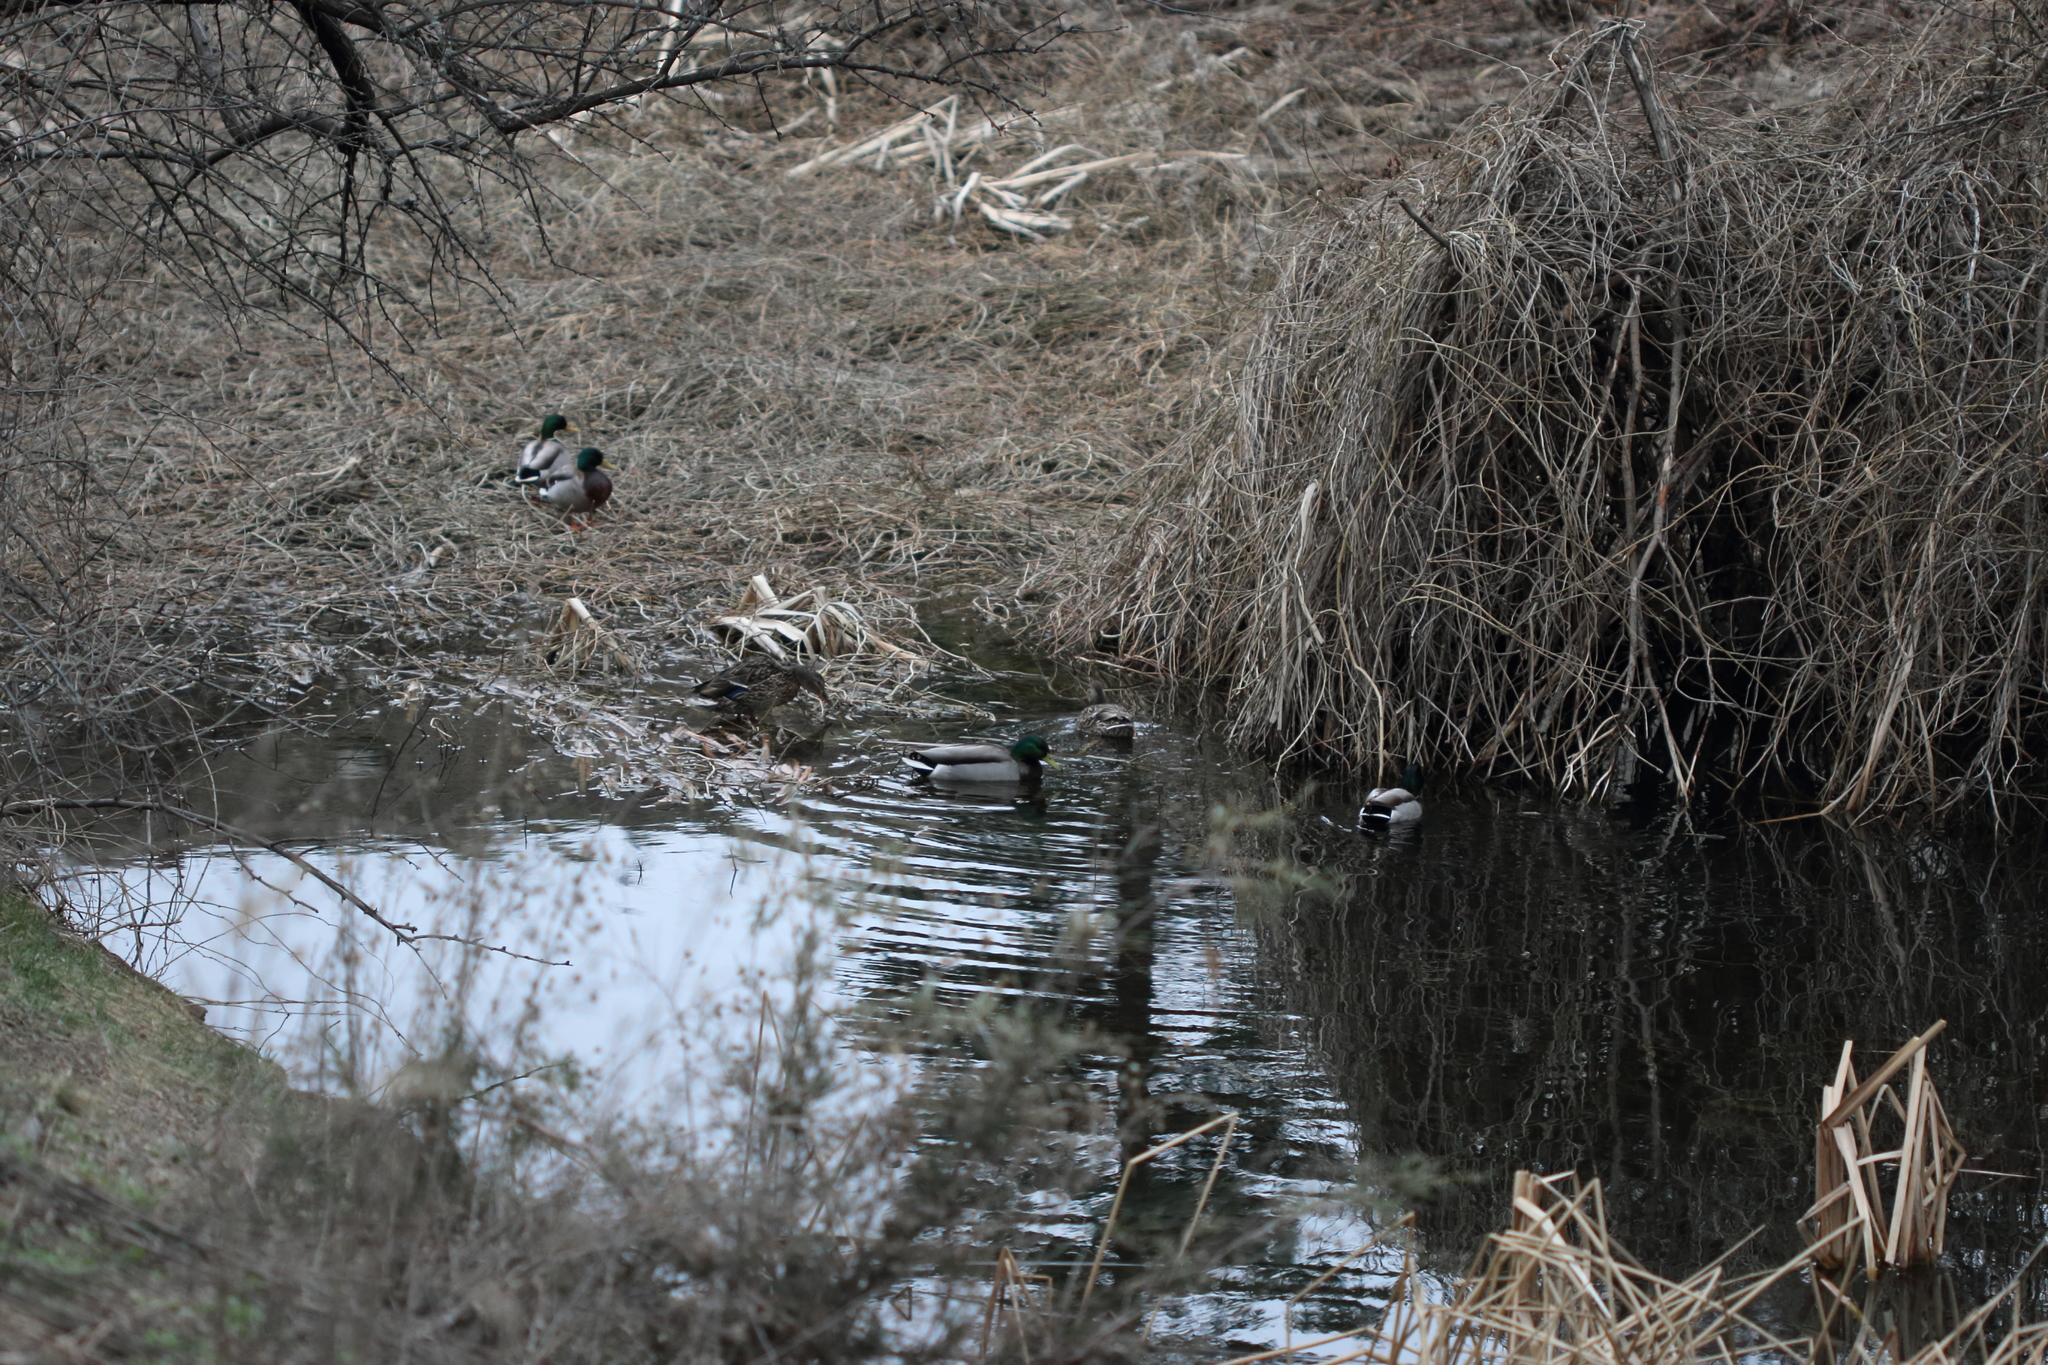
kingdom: Animalia
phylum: Chordata
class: Aves
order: Anseriformes
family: Anatidae
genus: Anas
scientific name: Anas platyrhynchos
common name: Mallard
